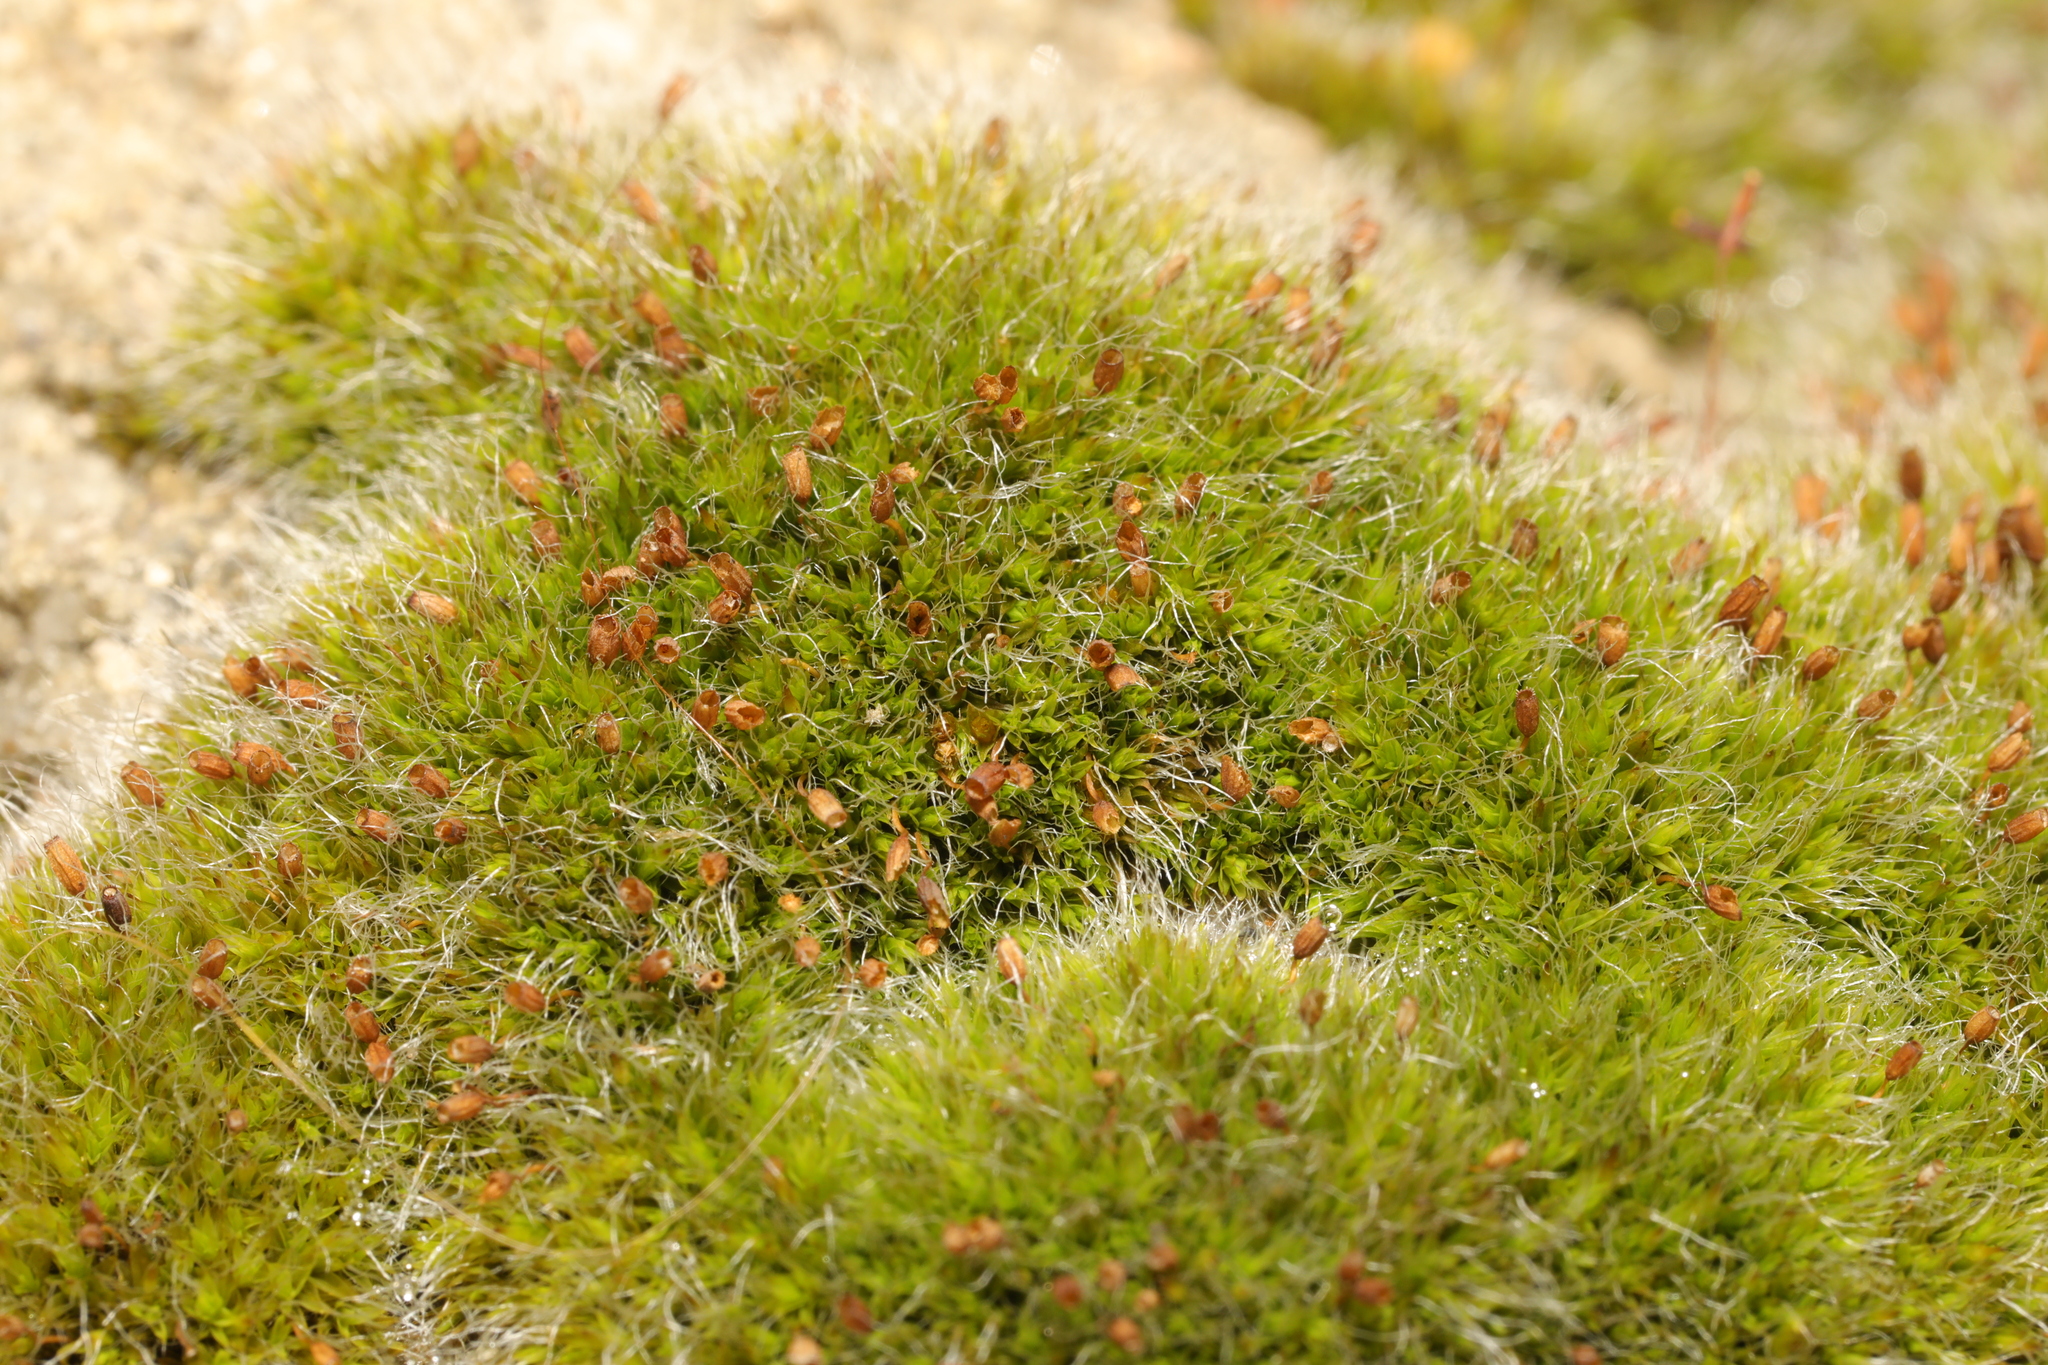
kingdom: Plantae
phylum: Bryophyta
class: Bryopsida
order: Grimmiales
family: Grimmiaceae
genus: Grimmia
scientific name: Grimmia pulvinata
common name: Grey-cushioned grimmia
